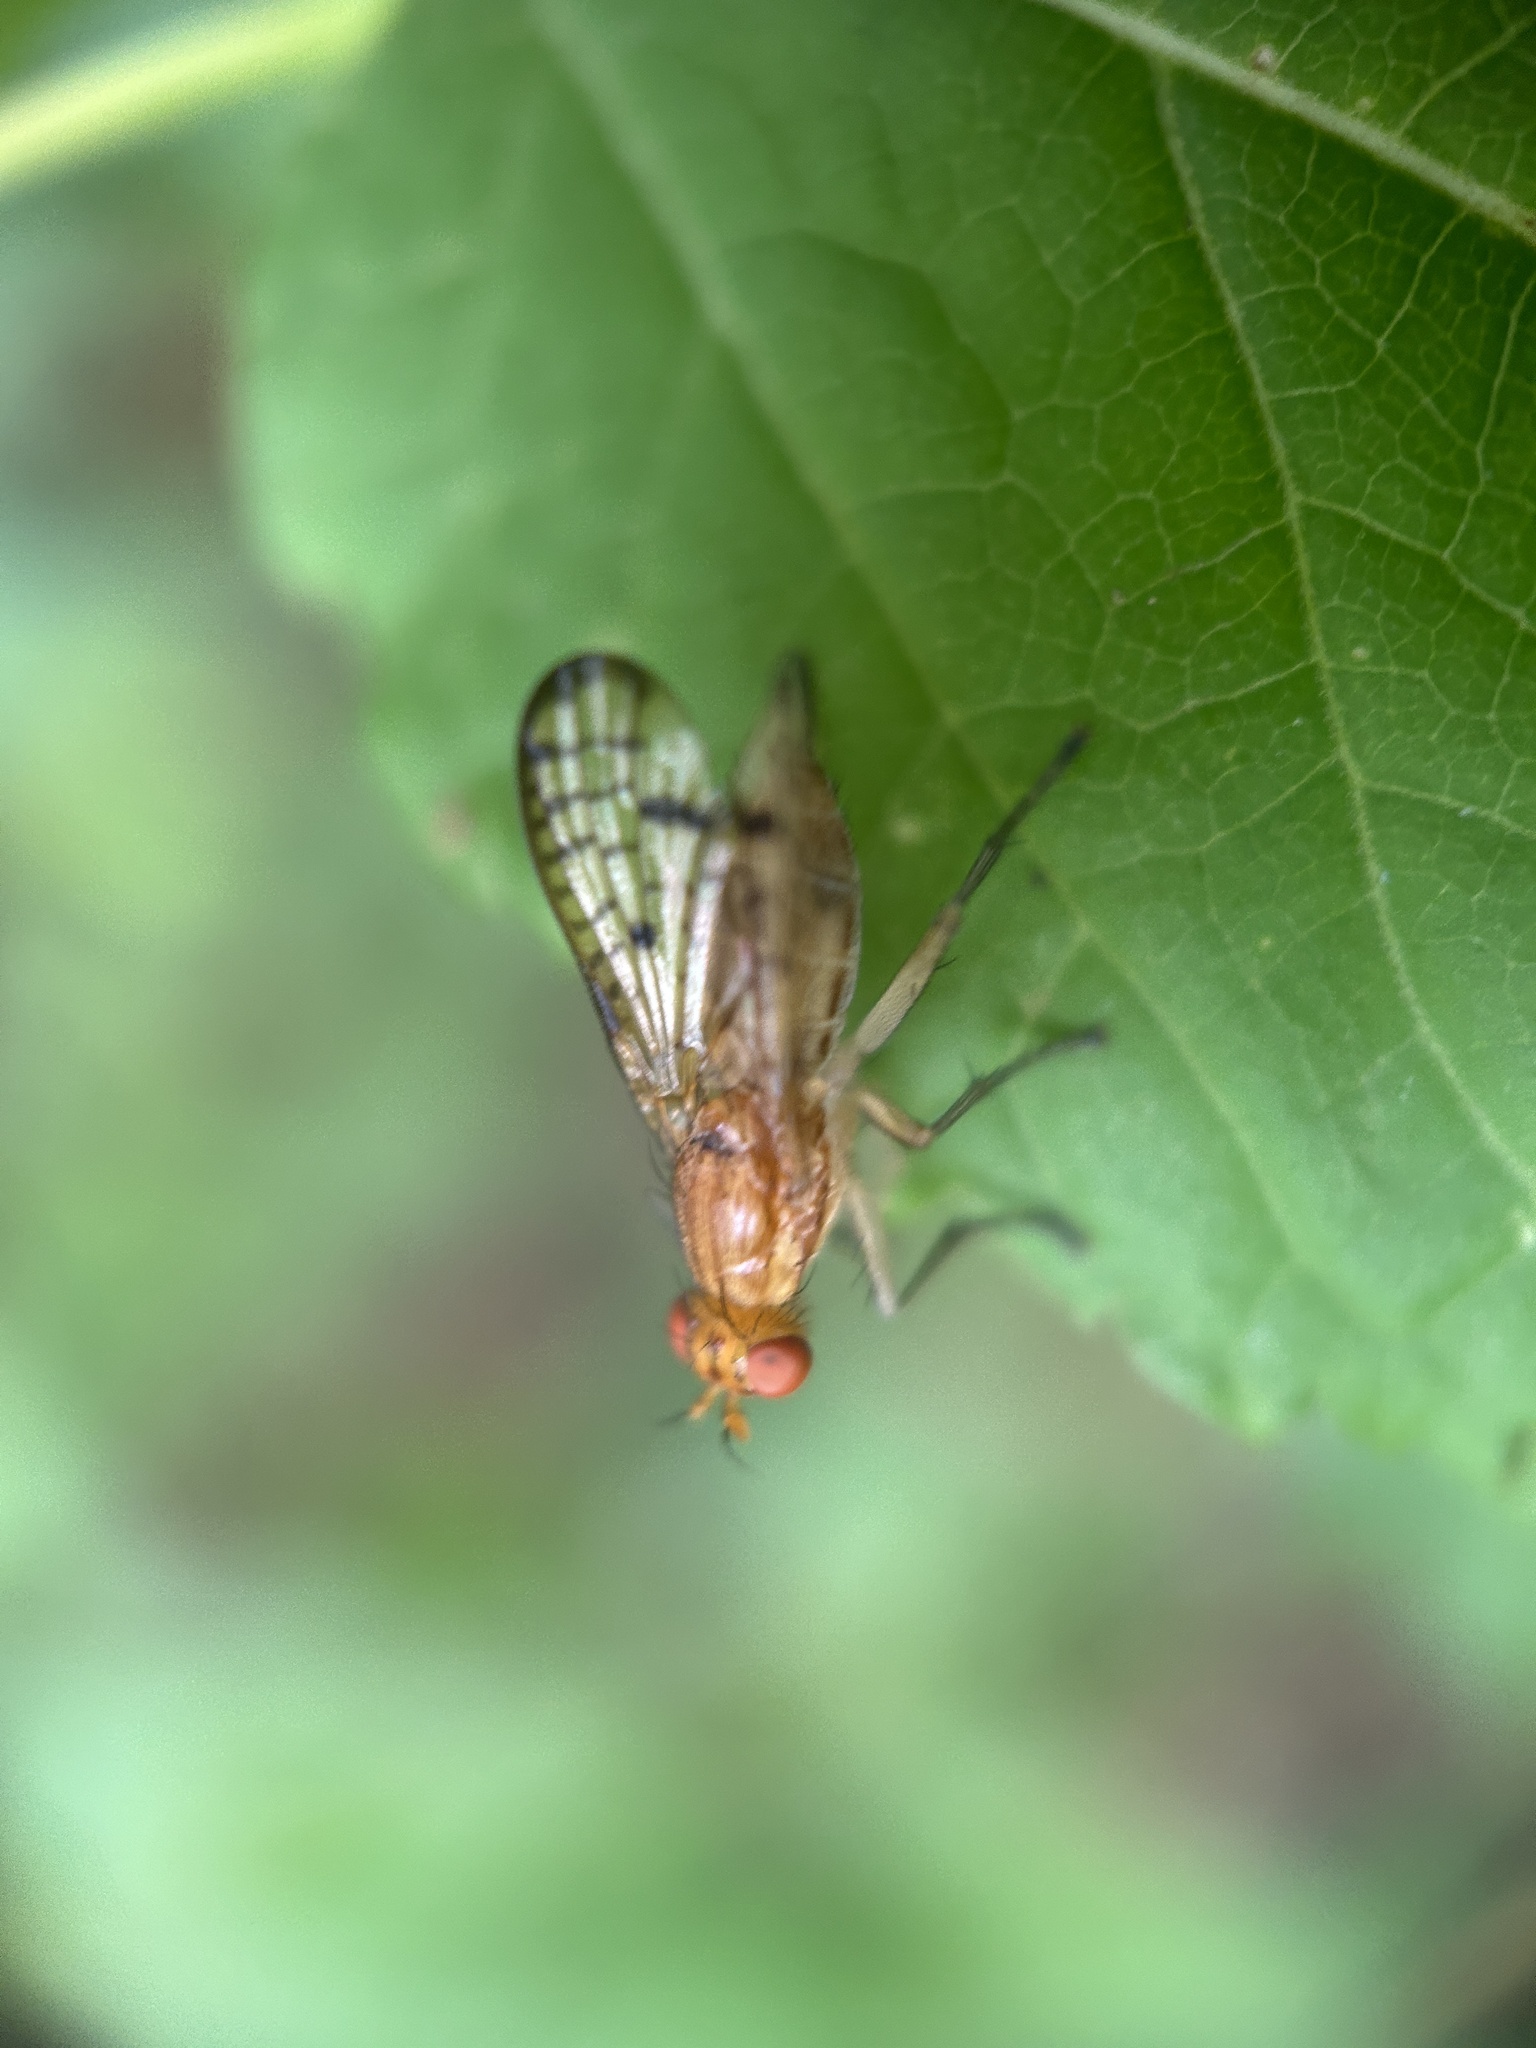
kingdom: Animalia
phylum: Arthropoda
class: Insecta
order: Diptera
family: Sciomyzidae
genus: Tetanocera
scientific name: Tetanocera valida
